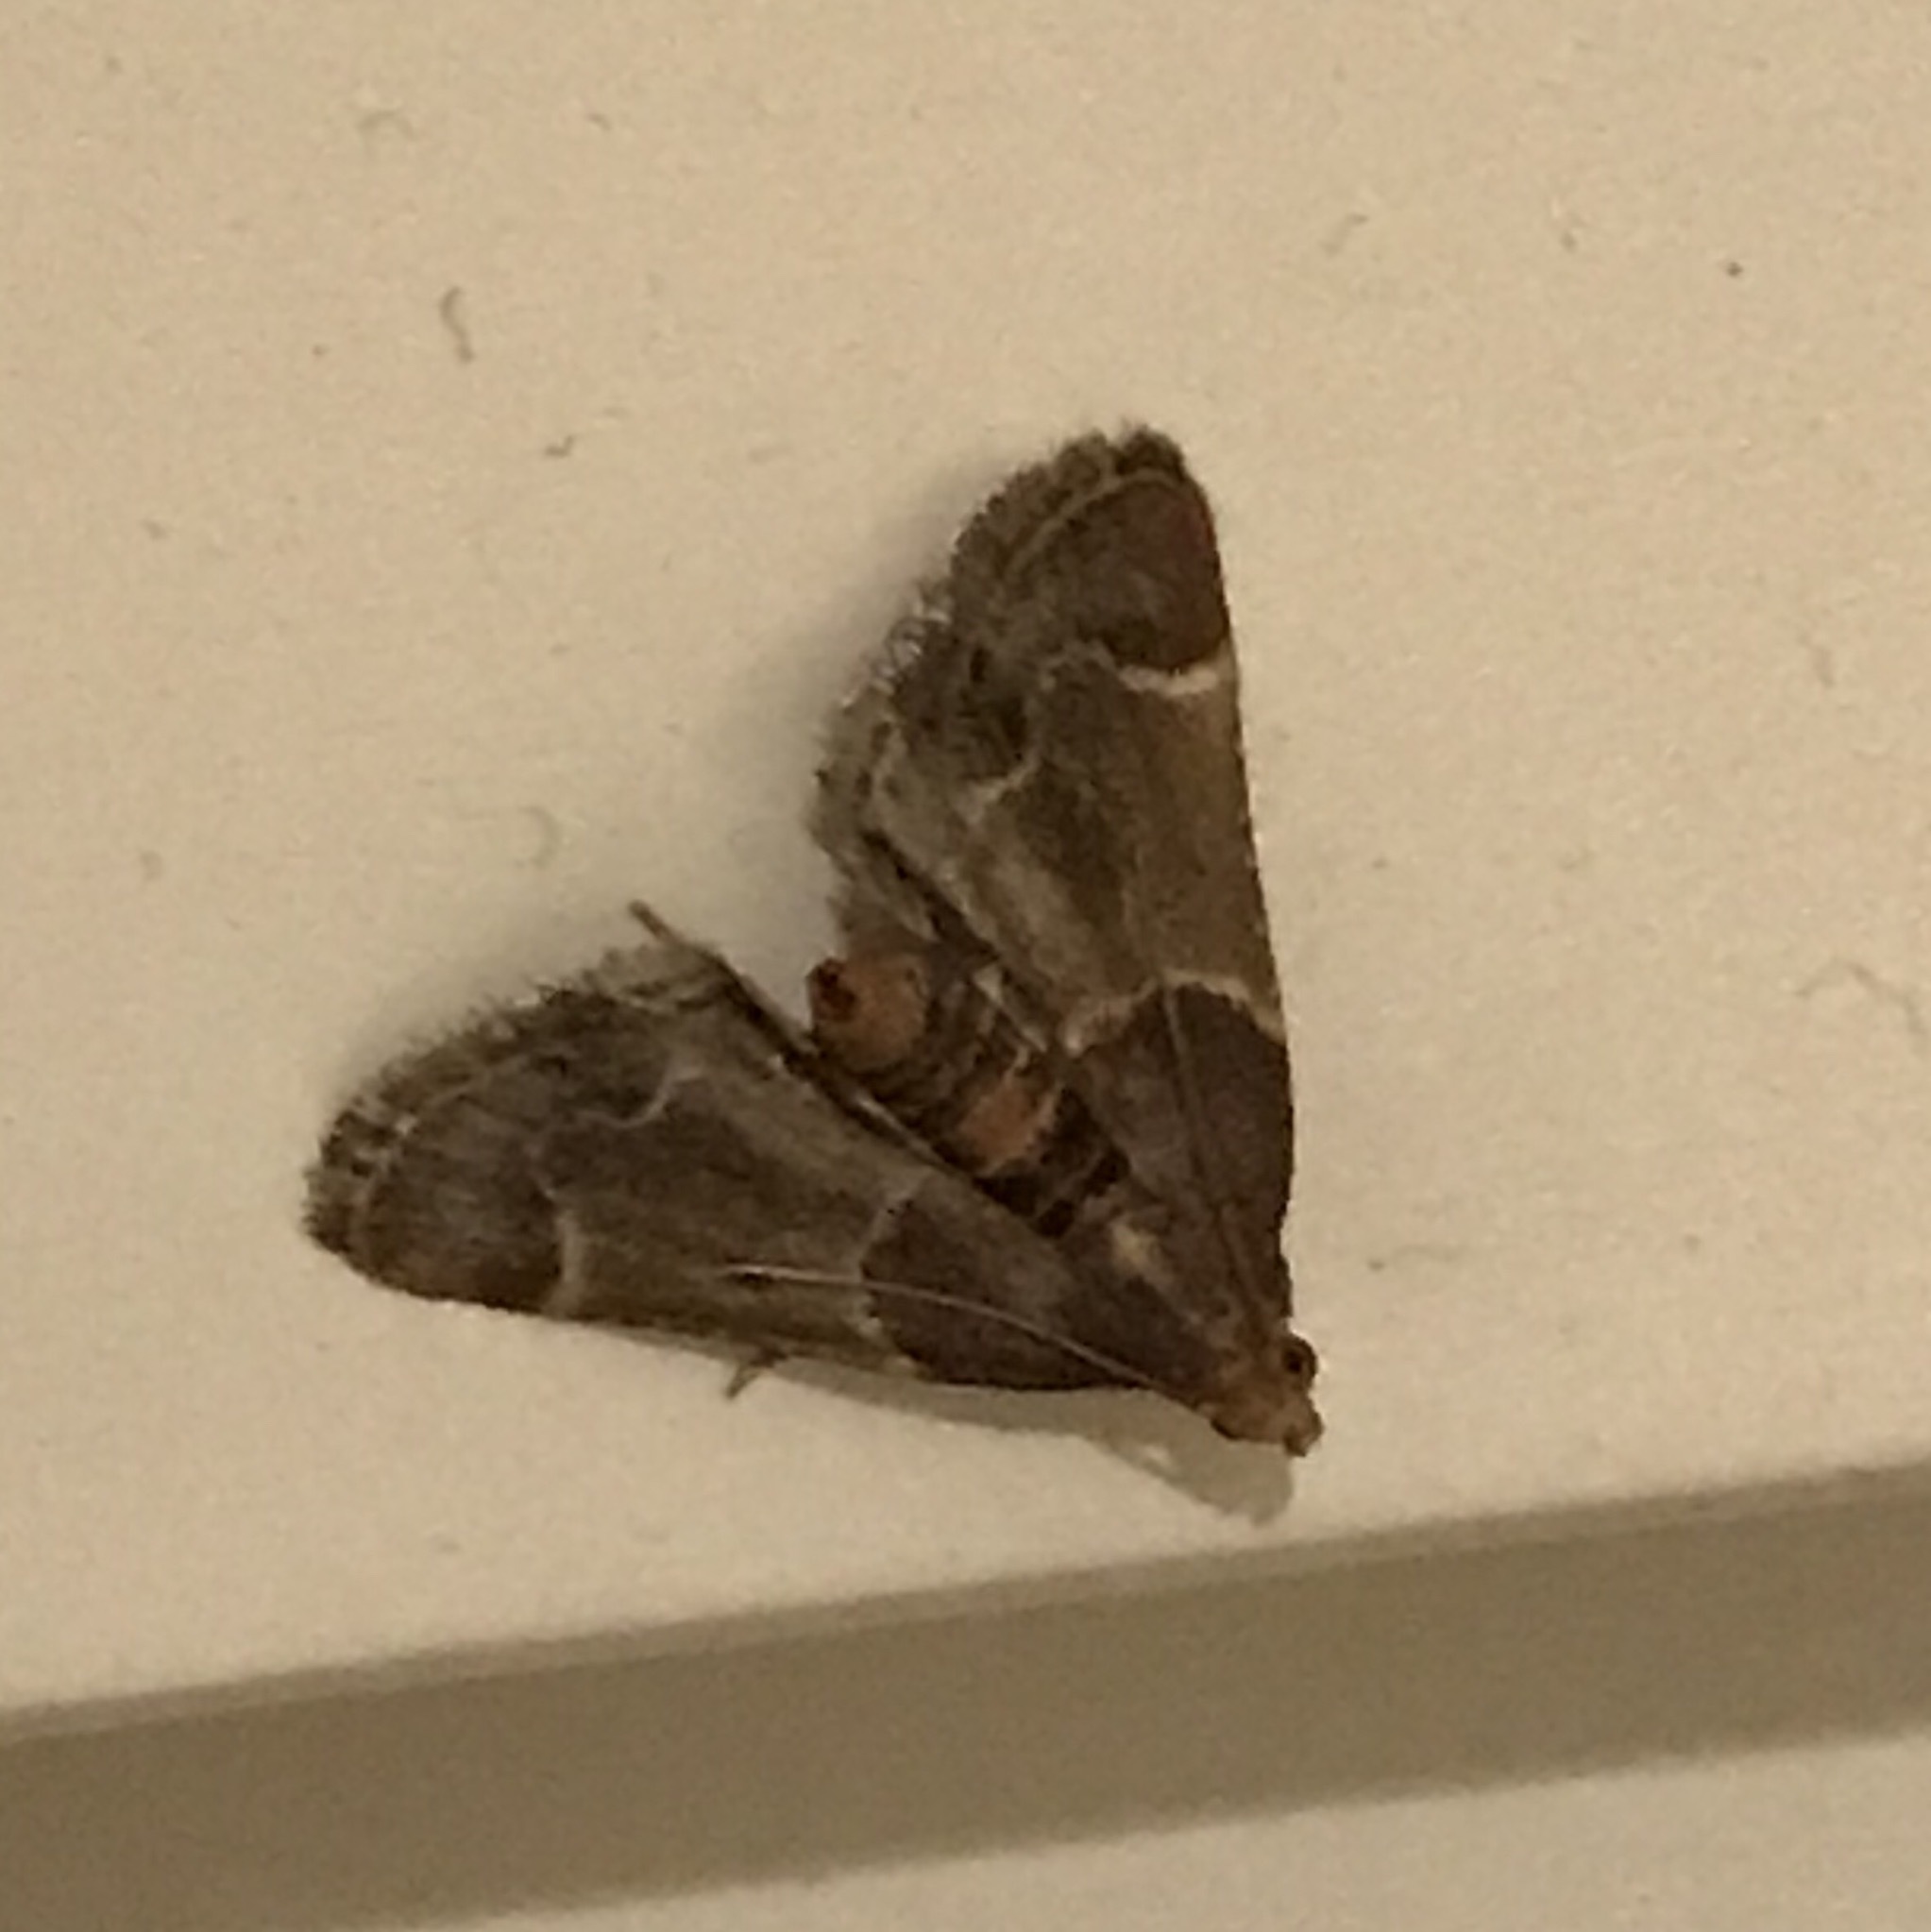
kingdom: Animalia
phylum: Arthropoda
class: Insecta
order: Lepidoptera
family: Pyralidae
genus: Pyralis
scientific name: Pyralis farinalis
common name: Meal moth
